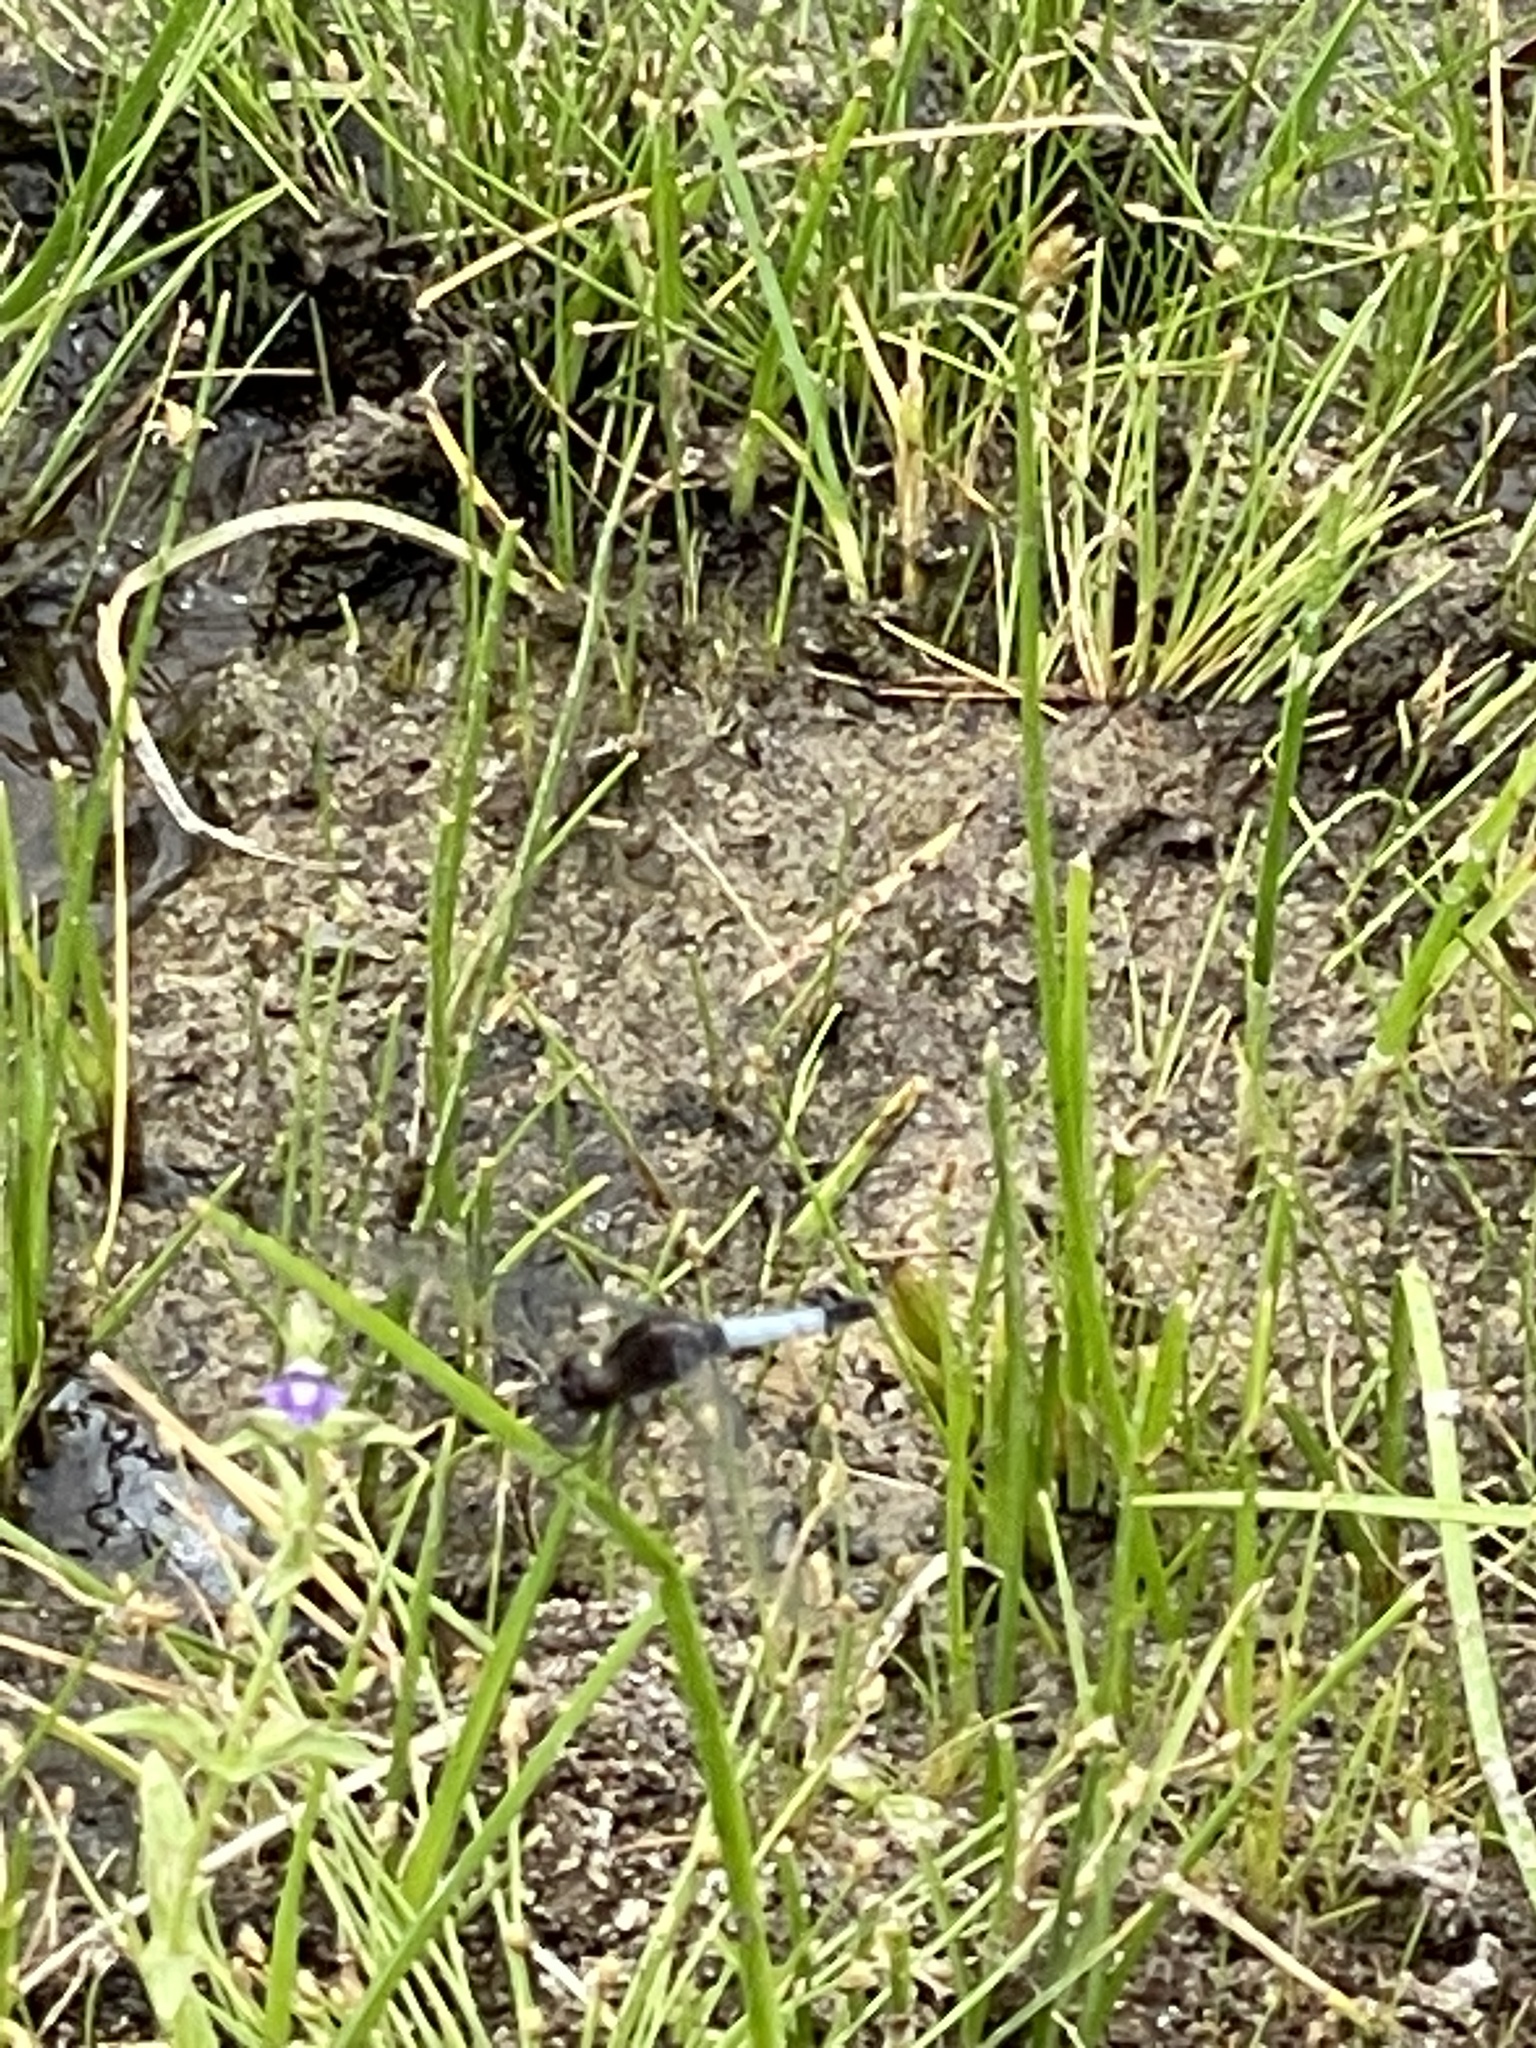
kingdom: Animalia
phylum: Arthropoda
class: Insecta
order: Odonata
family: Libellulidae
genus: Erythrodiplax
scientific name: Erythrodiplax basifusca
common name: Plateau dragonlet
